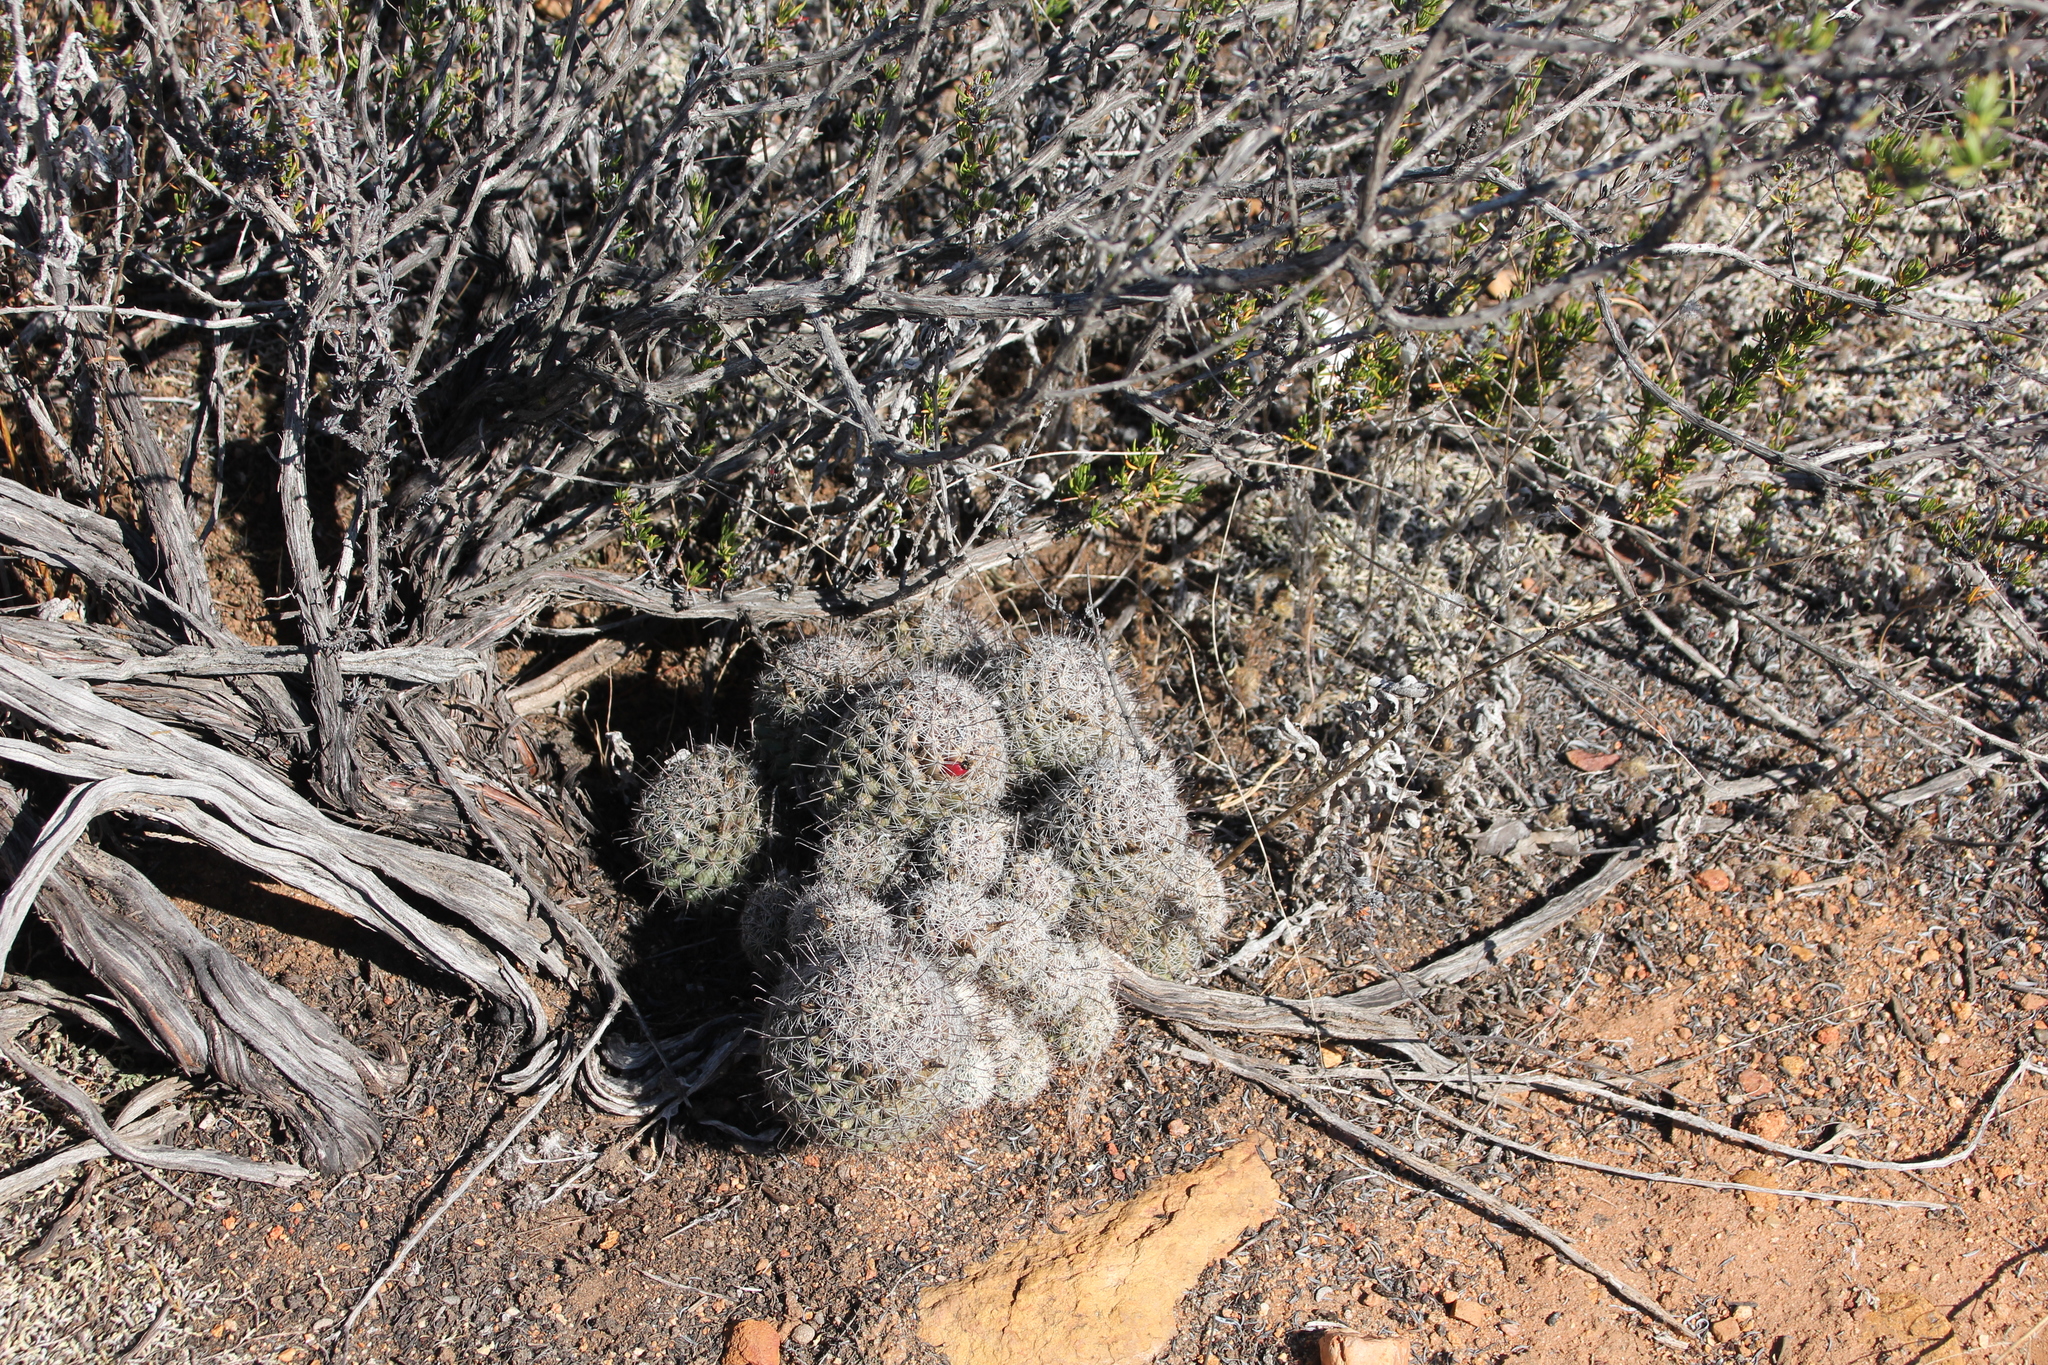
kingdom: Plantae
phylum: Tracheophyta
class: Magnoliopsida
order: Caryophyllales
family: Cactaceae
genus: Cochemiea
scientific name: Cochemiea dioica
